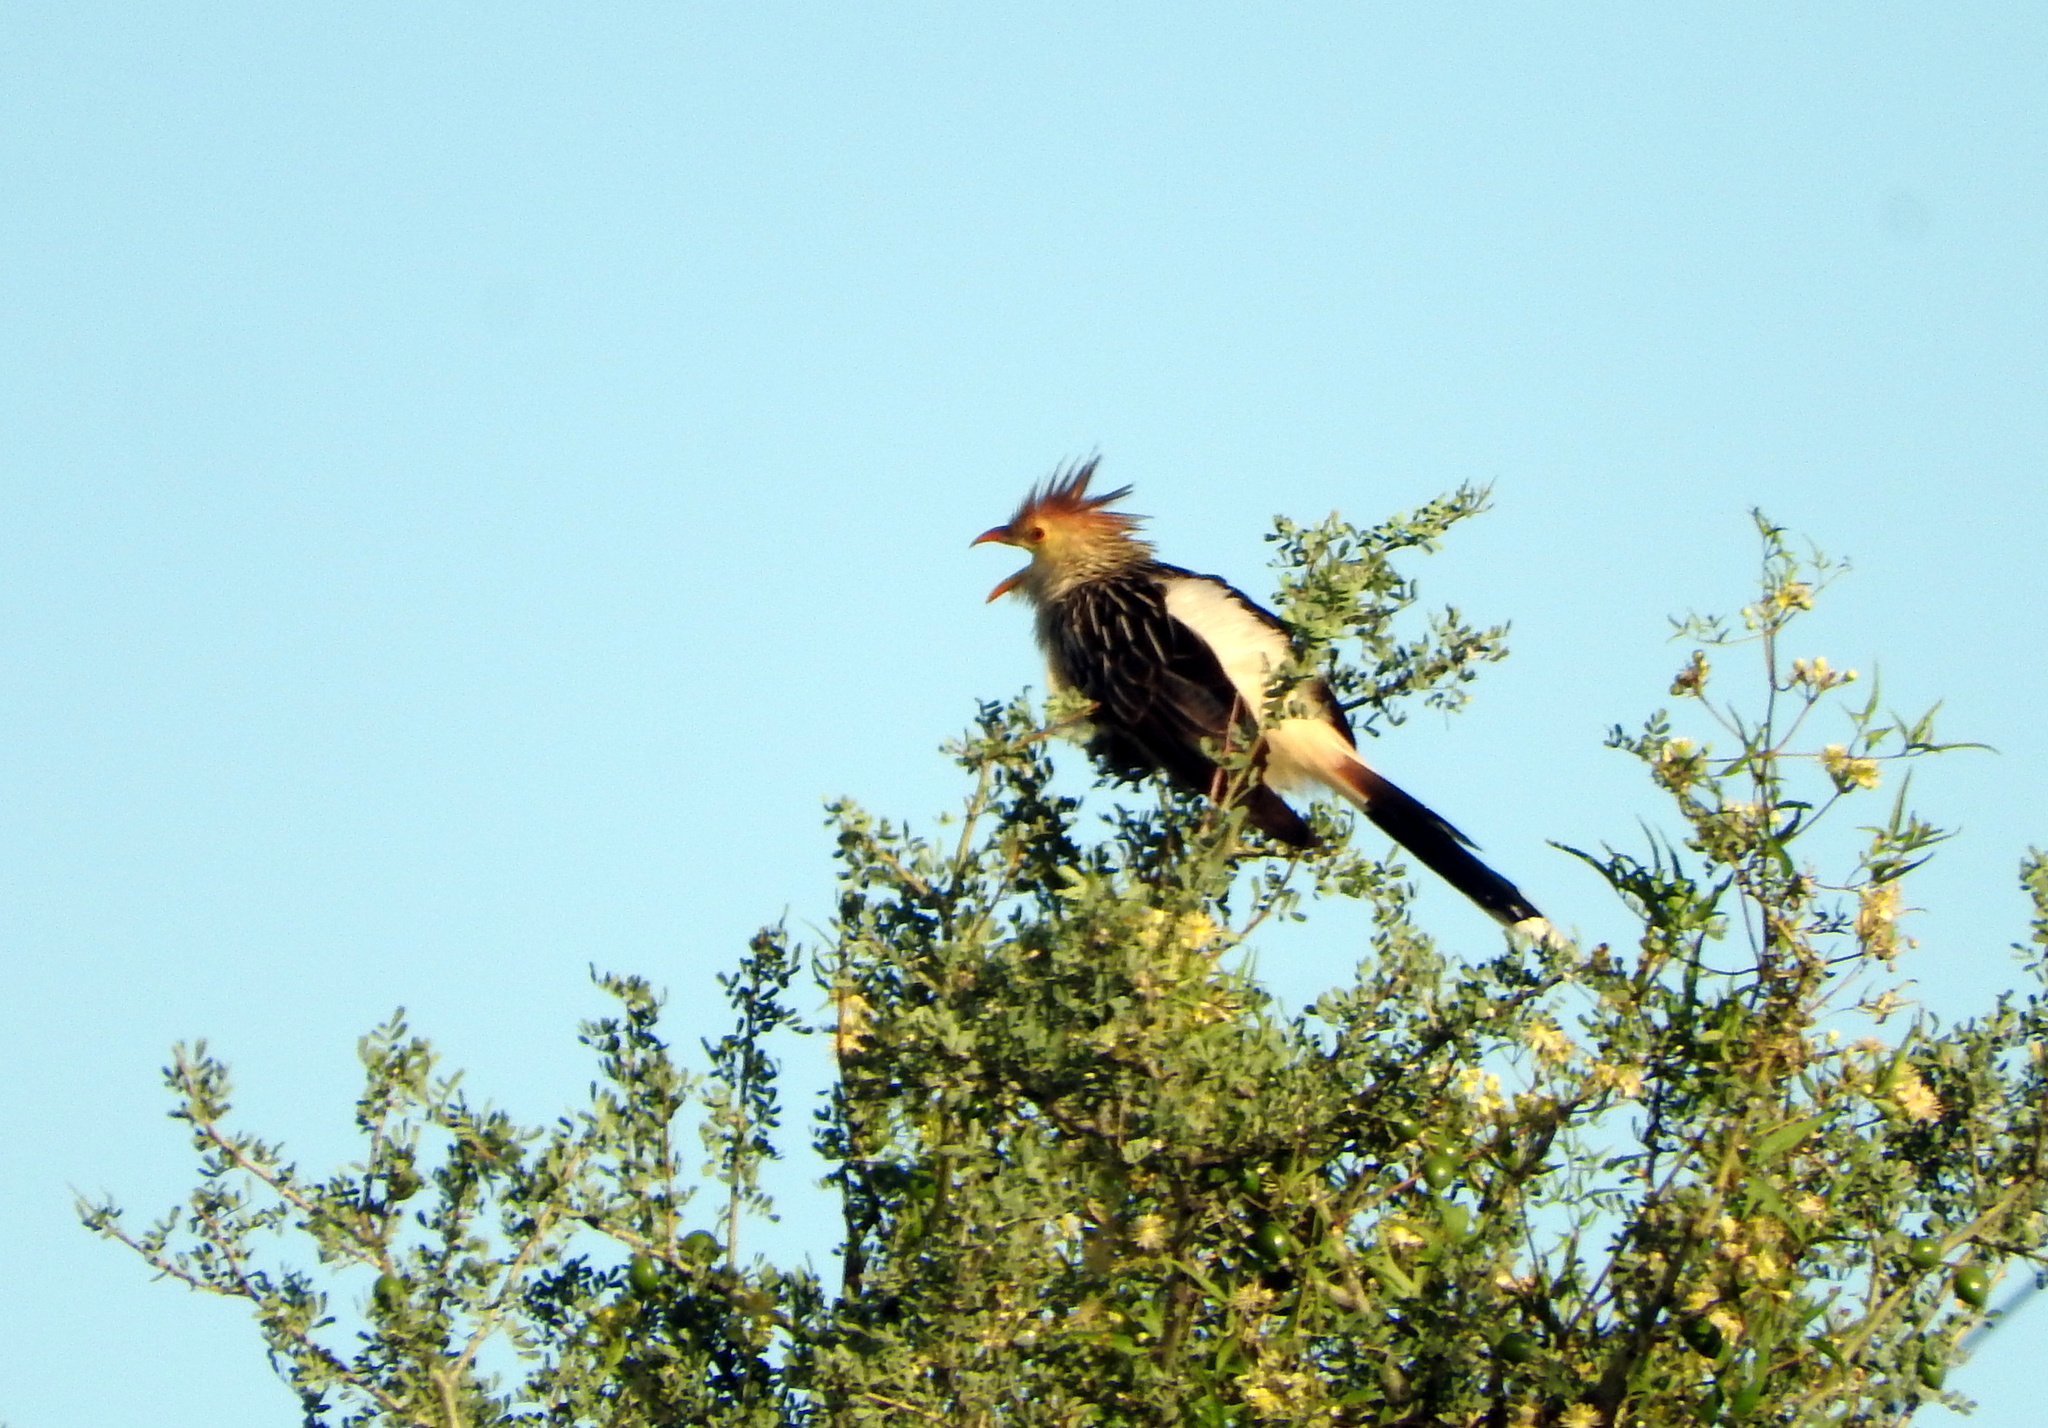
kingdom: Animalia
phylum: Chordata
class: Aves
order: Cuculiformes
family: Cuculidae
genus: Guira
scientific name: Guira guira
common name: Guira cuckoo
